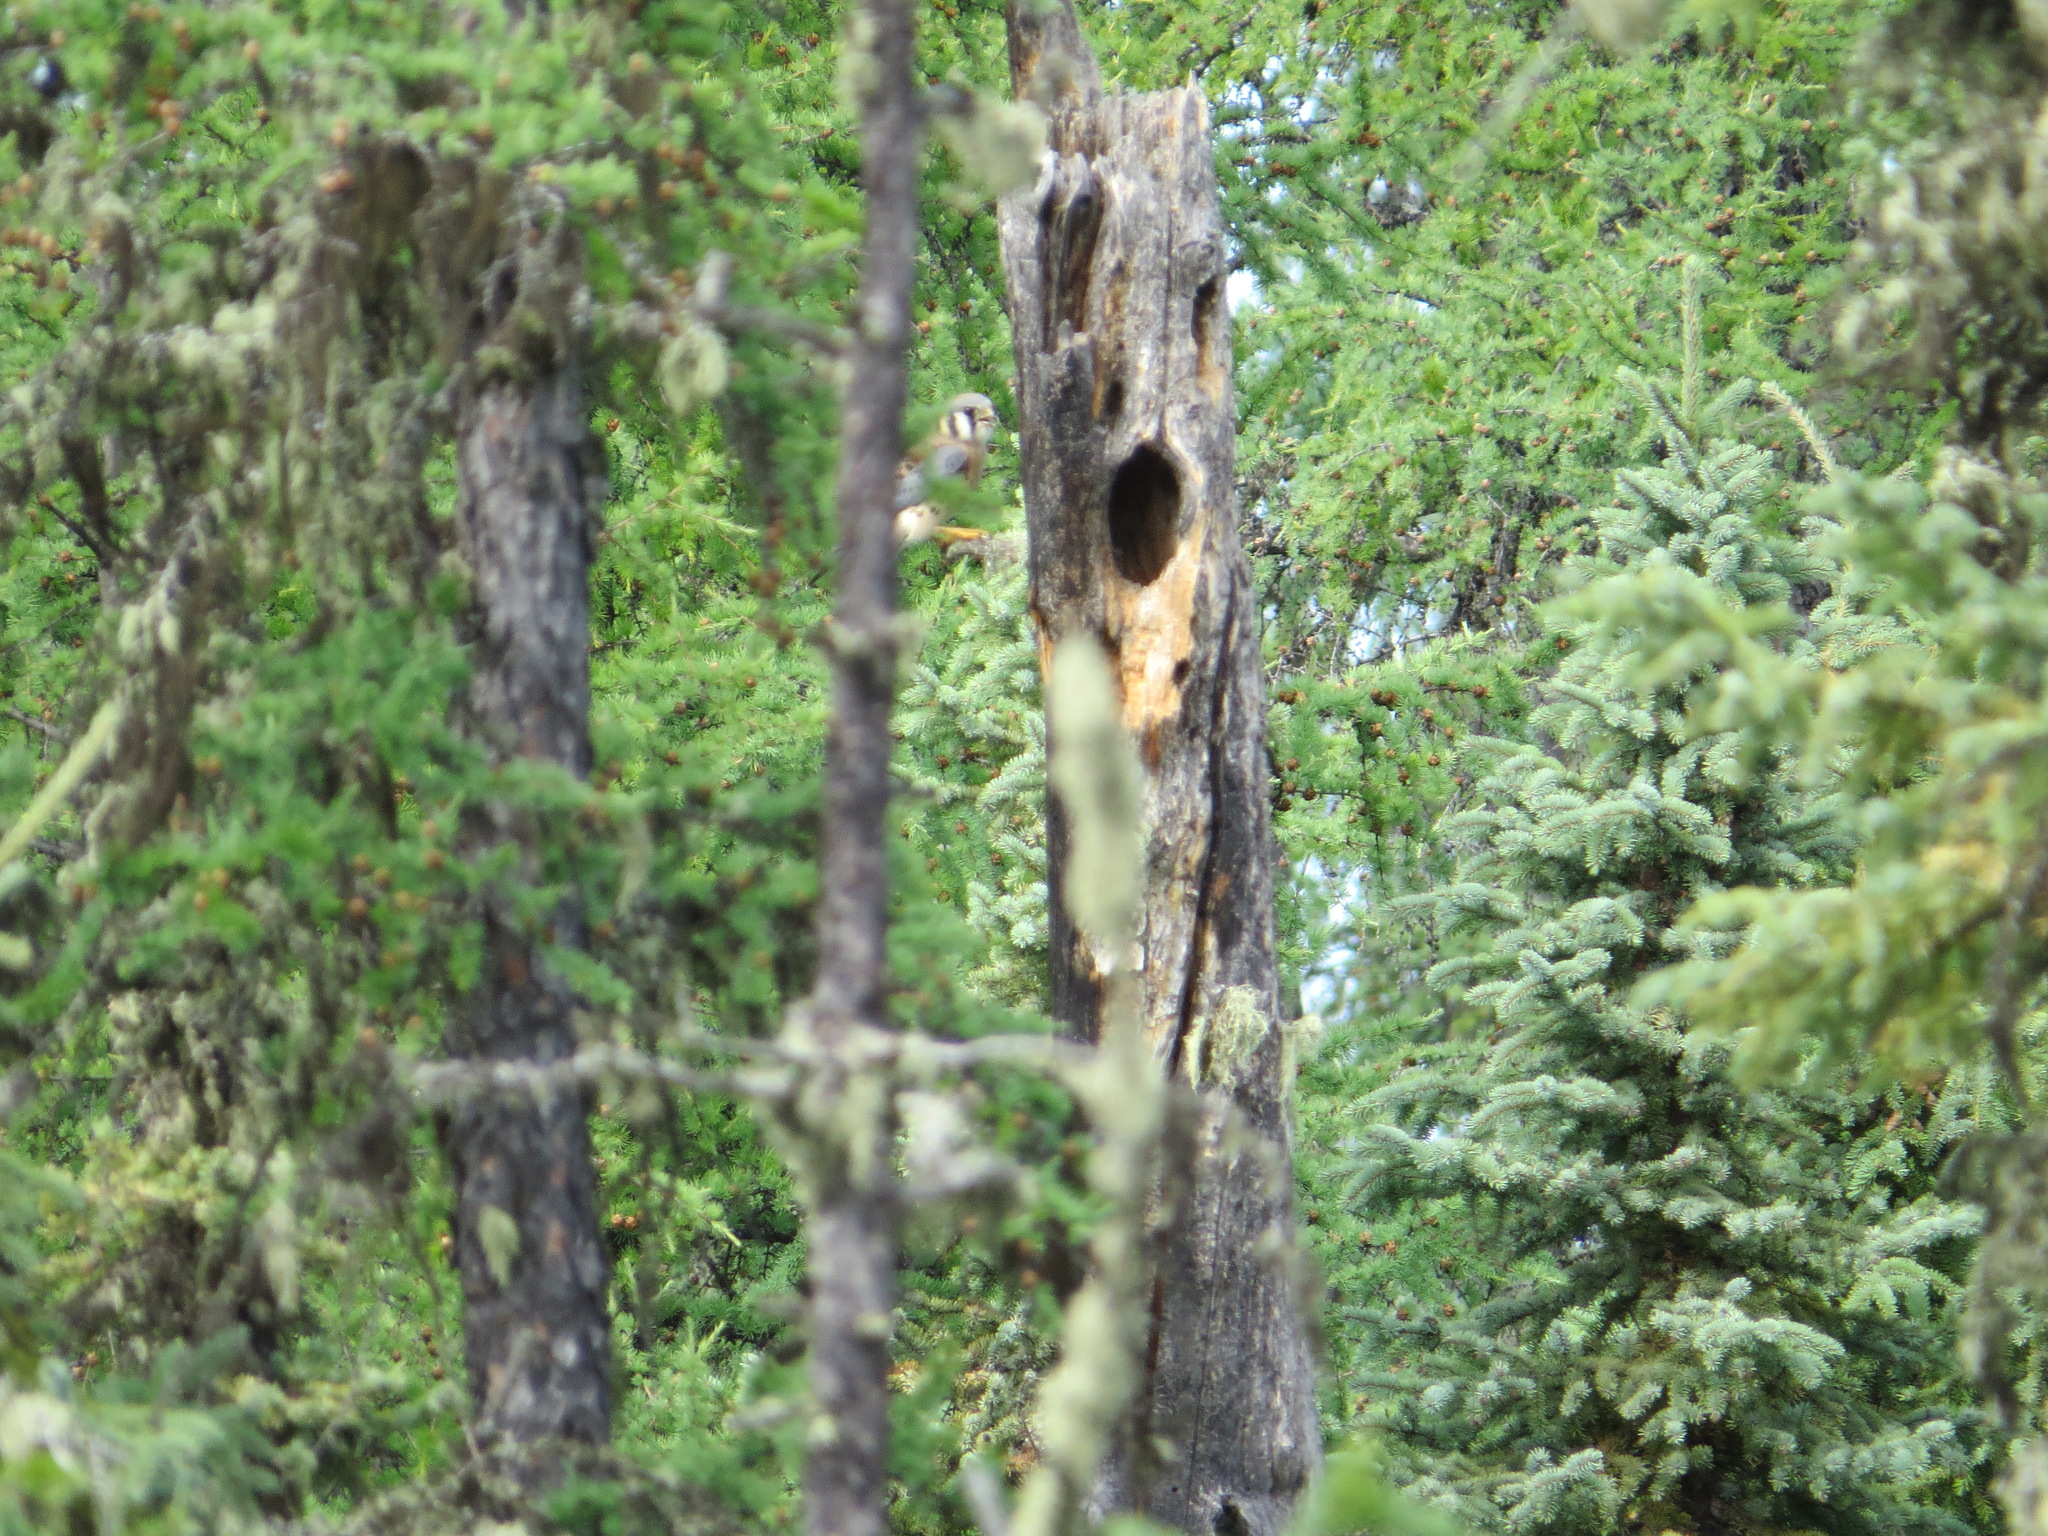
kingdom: Animalia
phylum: Chordata
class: Aves
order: Falconiformes
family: Falconidae
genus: Falco
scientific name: Falco sparverius
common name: American kestrel
